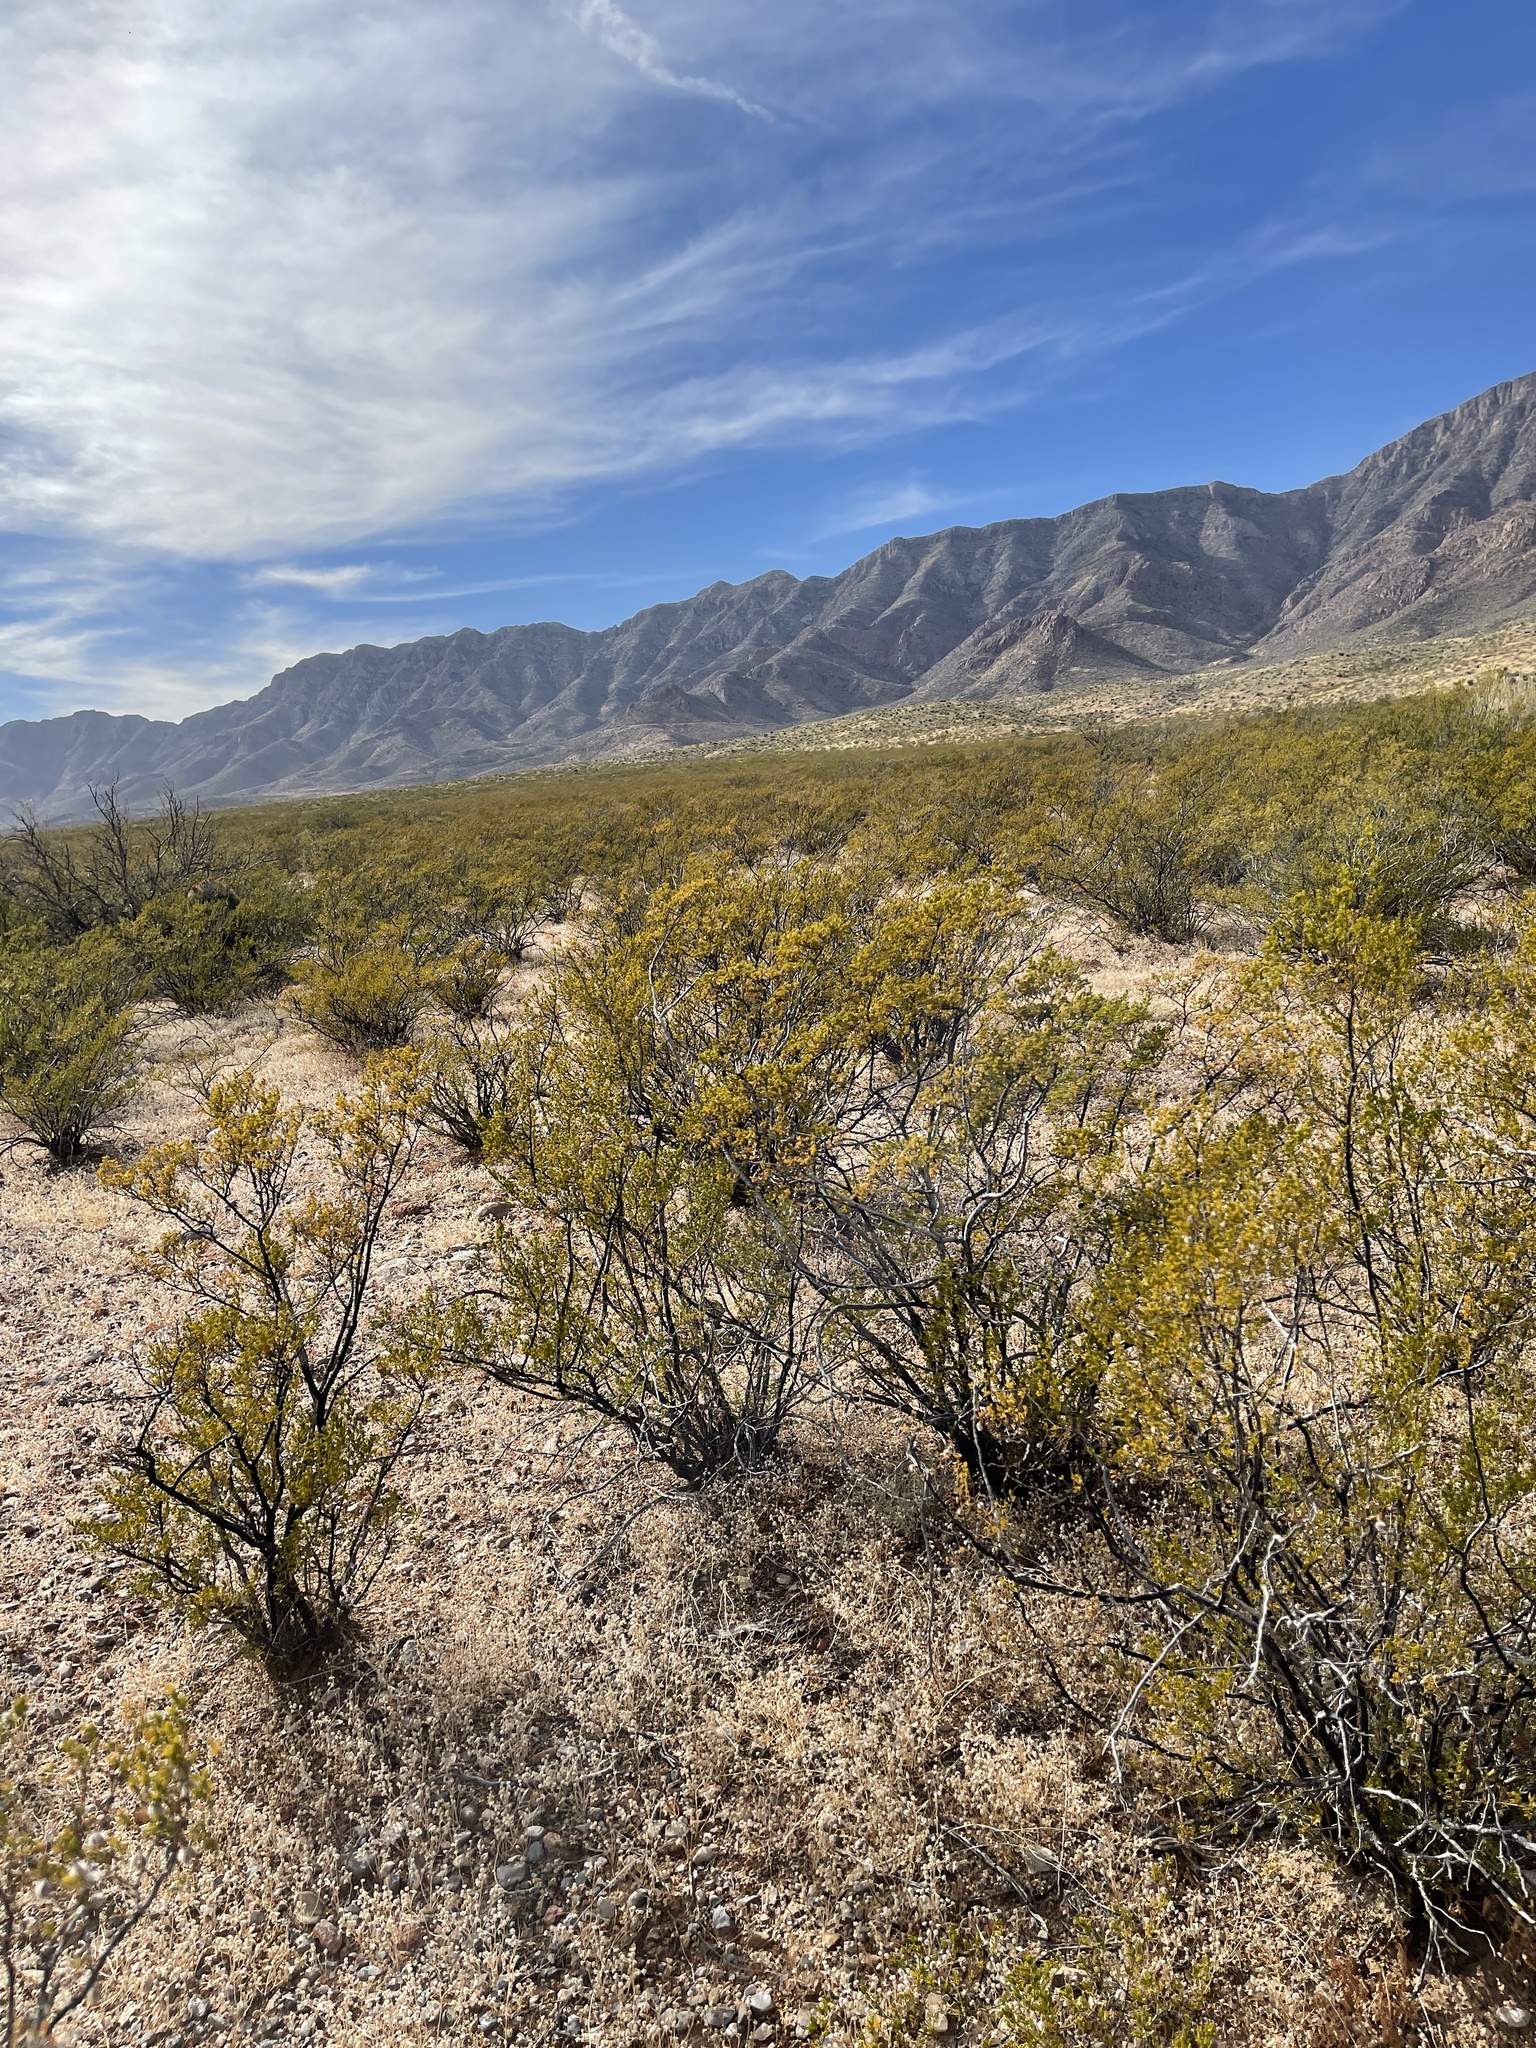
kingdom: Plantae
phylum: Tracheophyta
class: Magnoliopsida
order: Zygophyllales
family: Zygophyllaceae
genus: Larrea
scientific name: Larrea tridentata
